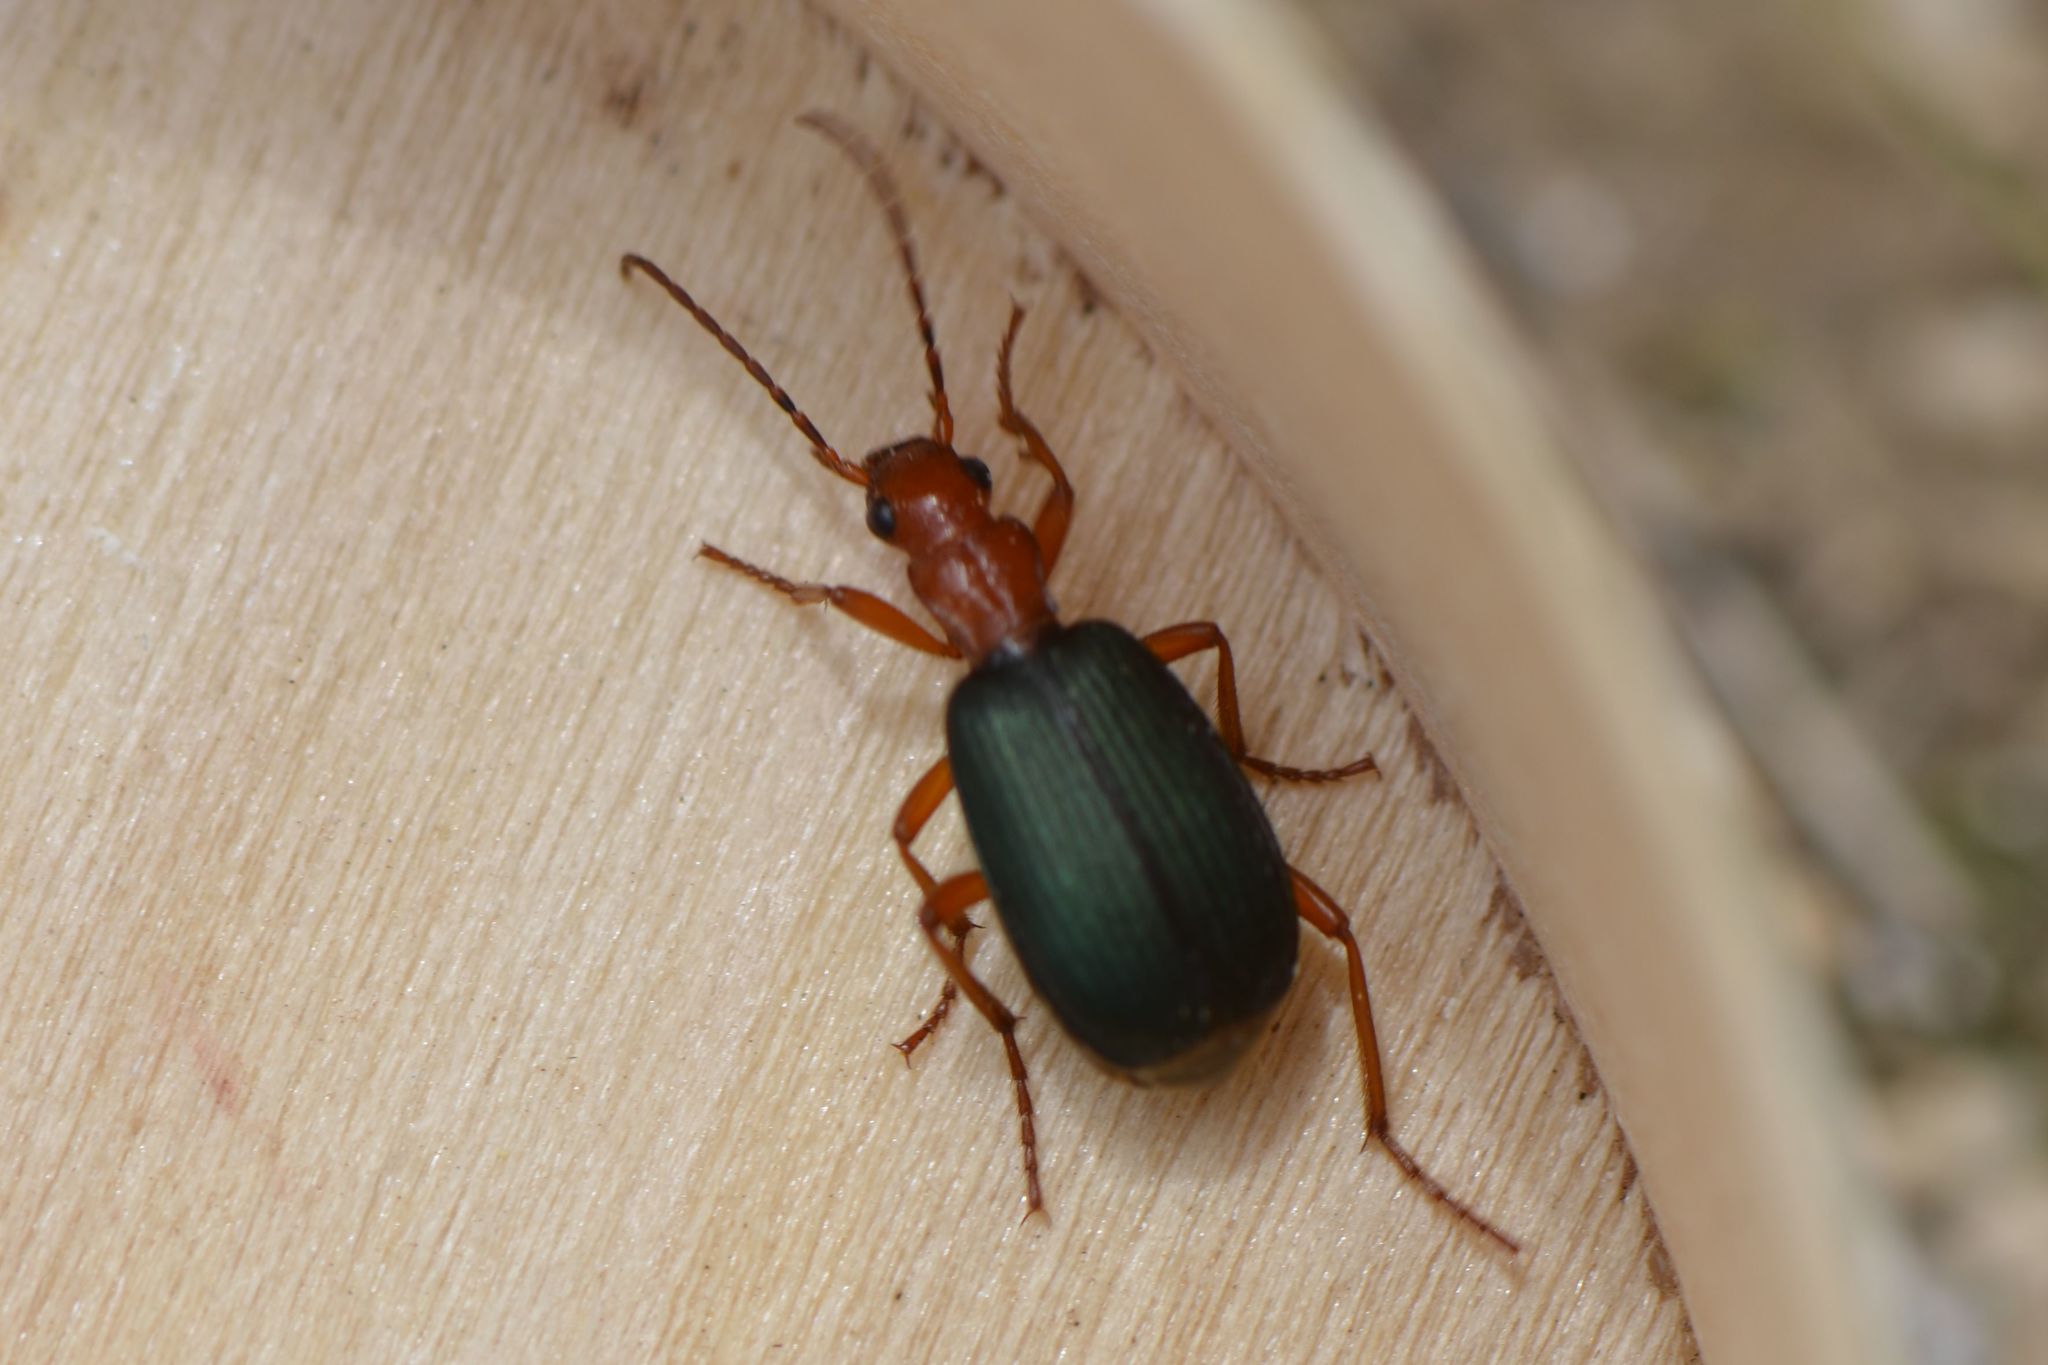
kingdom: Animalia
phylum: Arthropoda
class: Insecta
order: Coleoptera
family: Carabidae
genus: Brachinus
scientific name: Brachinus crepitans
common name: Bombadier beetle
